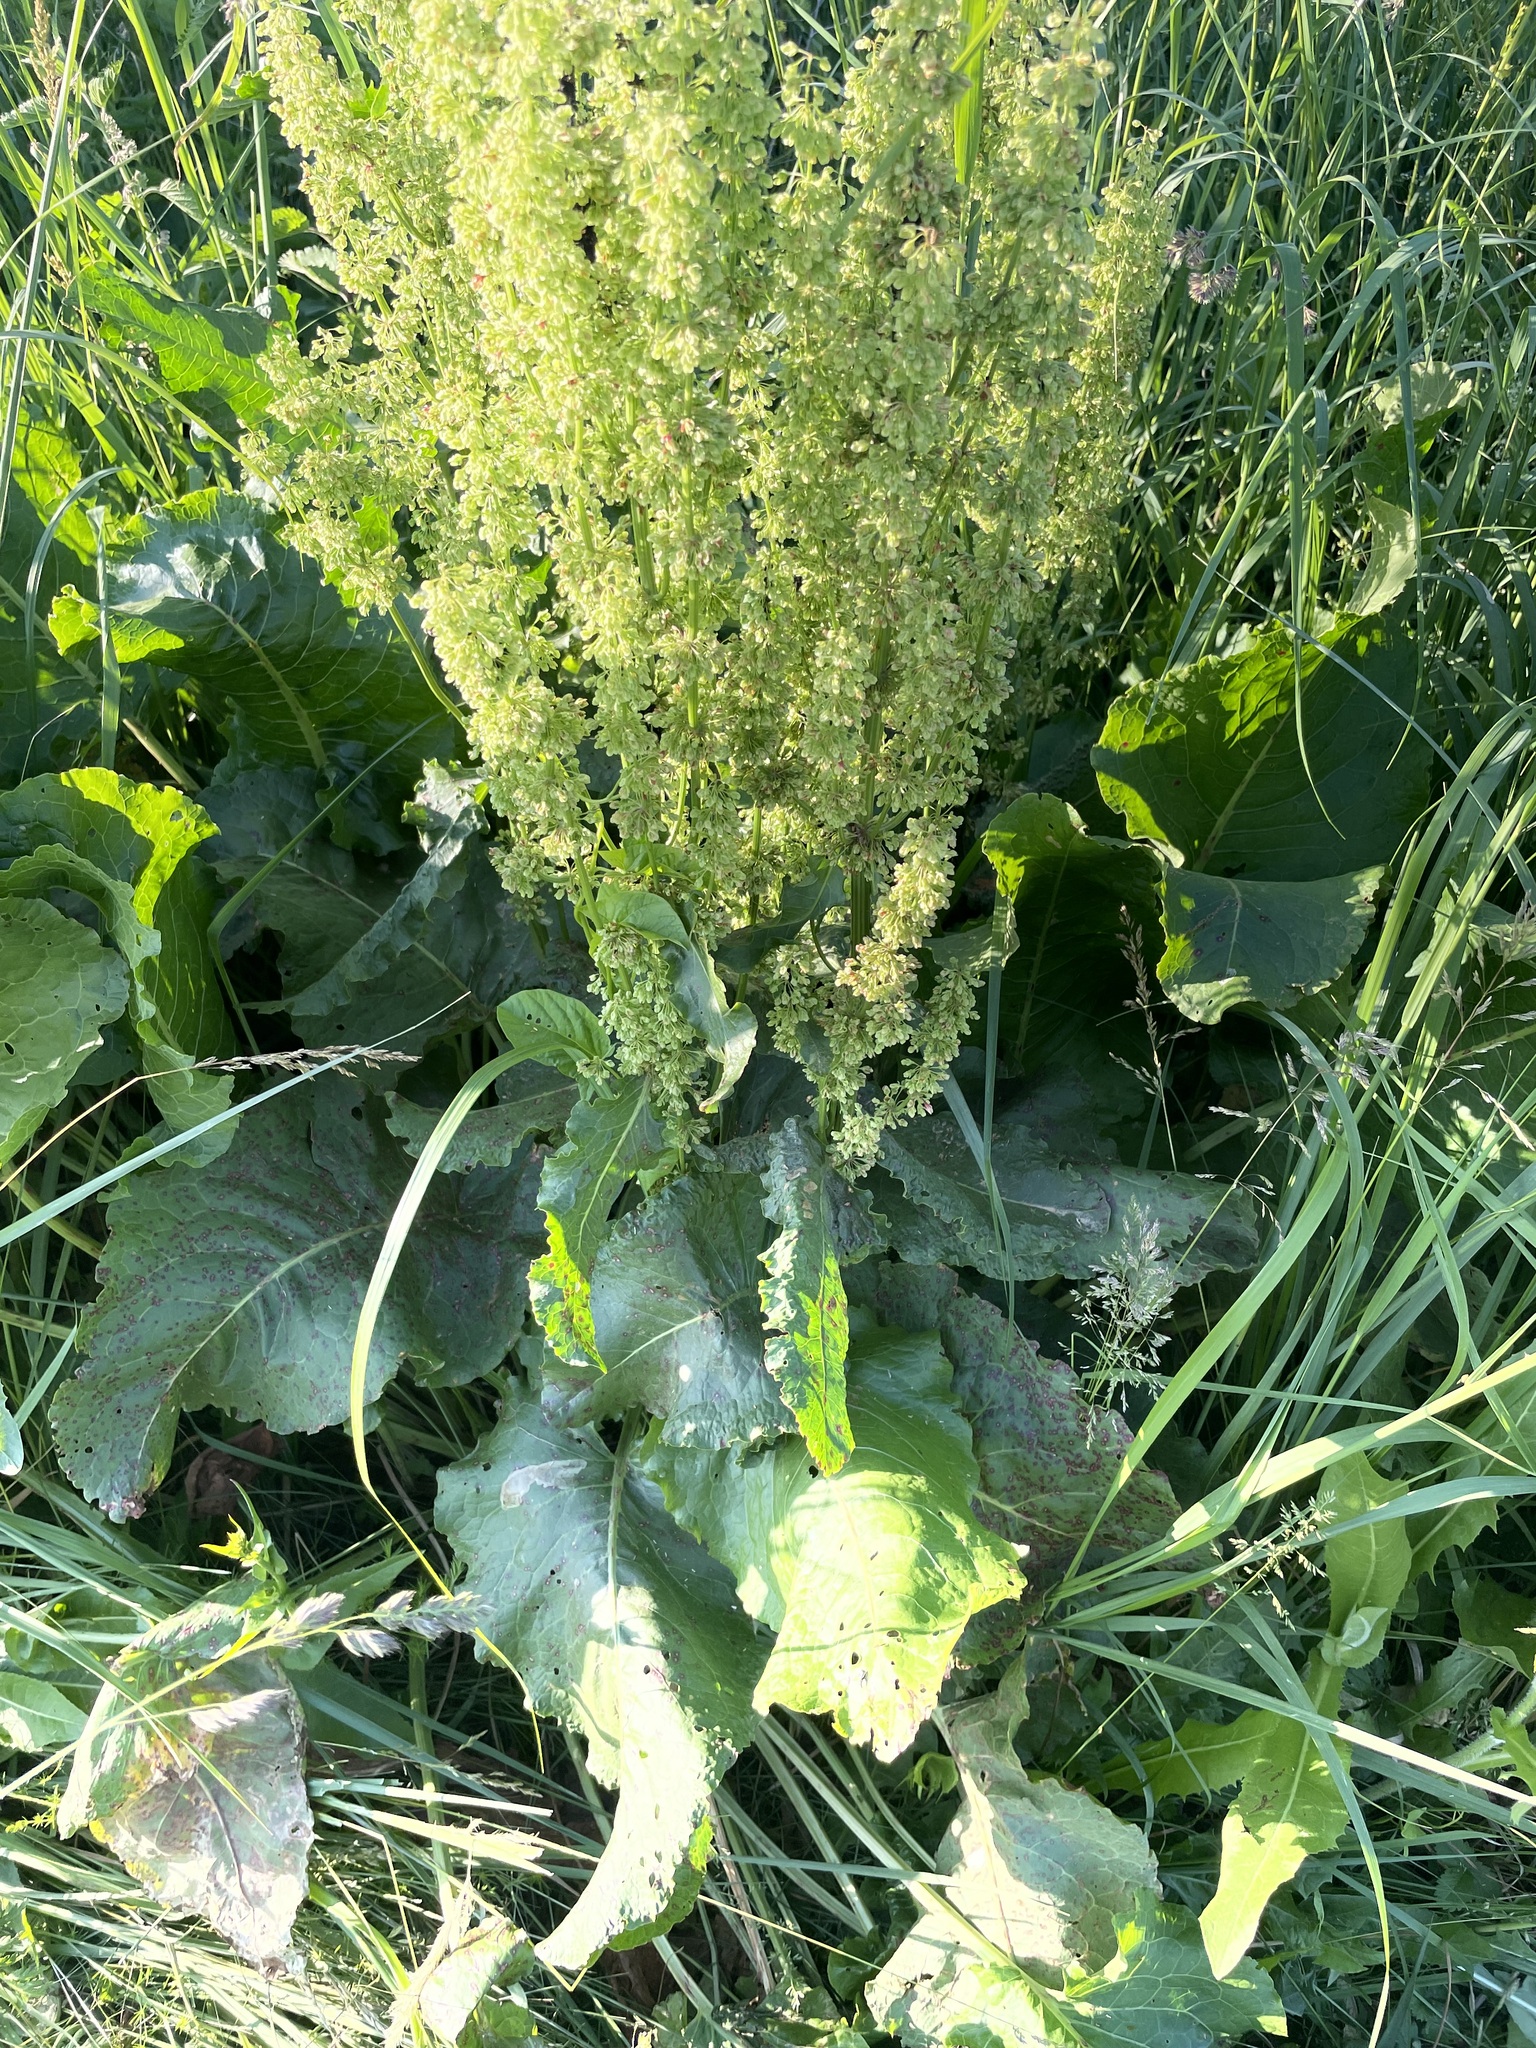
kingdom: Plantae
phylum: Tracheophyta
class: Magnoliopsida
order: Caryophyllales
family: Polygonaceae
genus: Rumex
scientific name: Rumex confertus
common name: Russian dock
